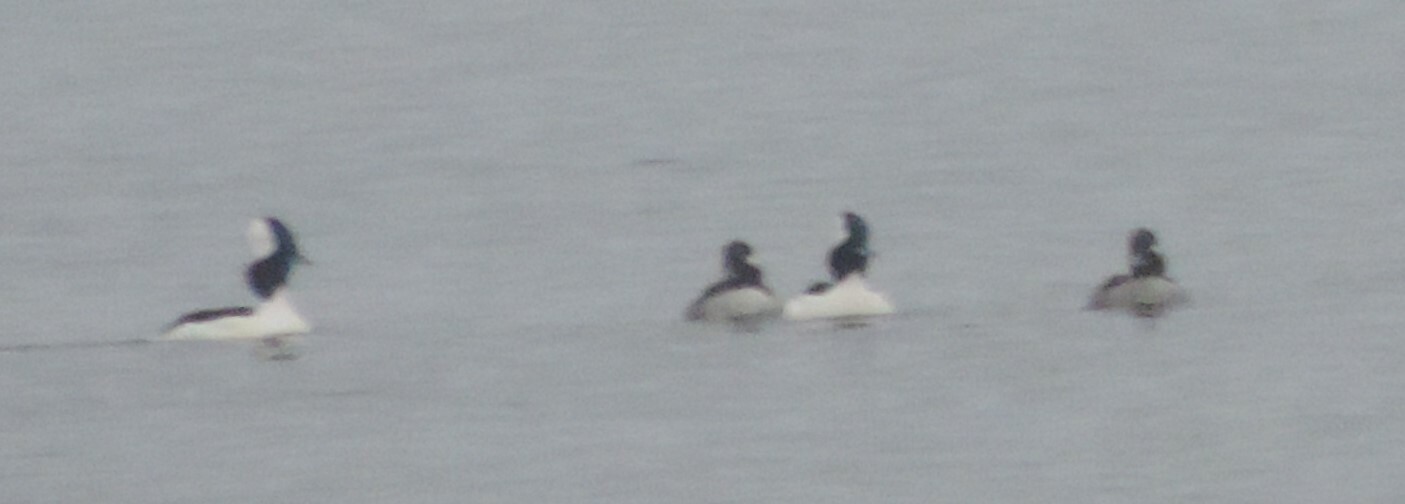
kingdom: Animalia
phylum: Chordata
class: Aves
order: Anseriformes
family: Anatidae
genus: Bucephala
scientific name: Bucephala albeola
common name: Bufflehead
